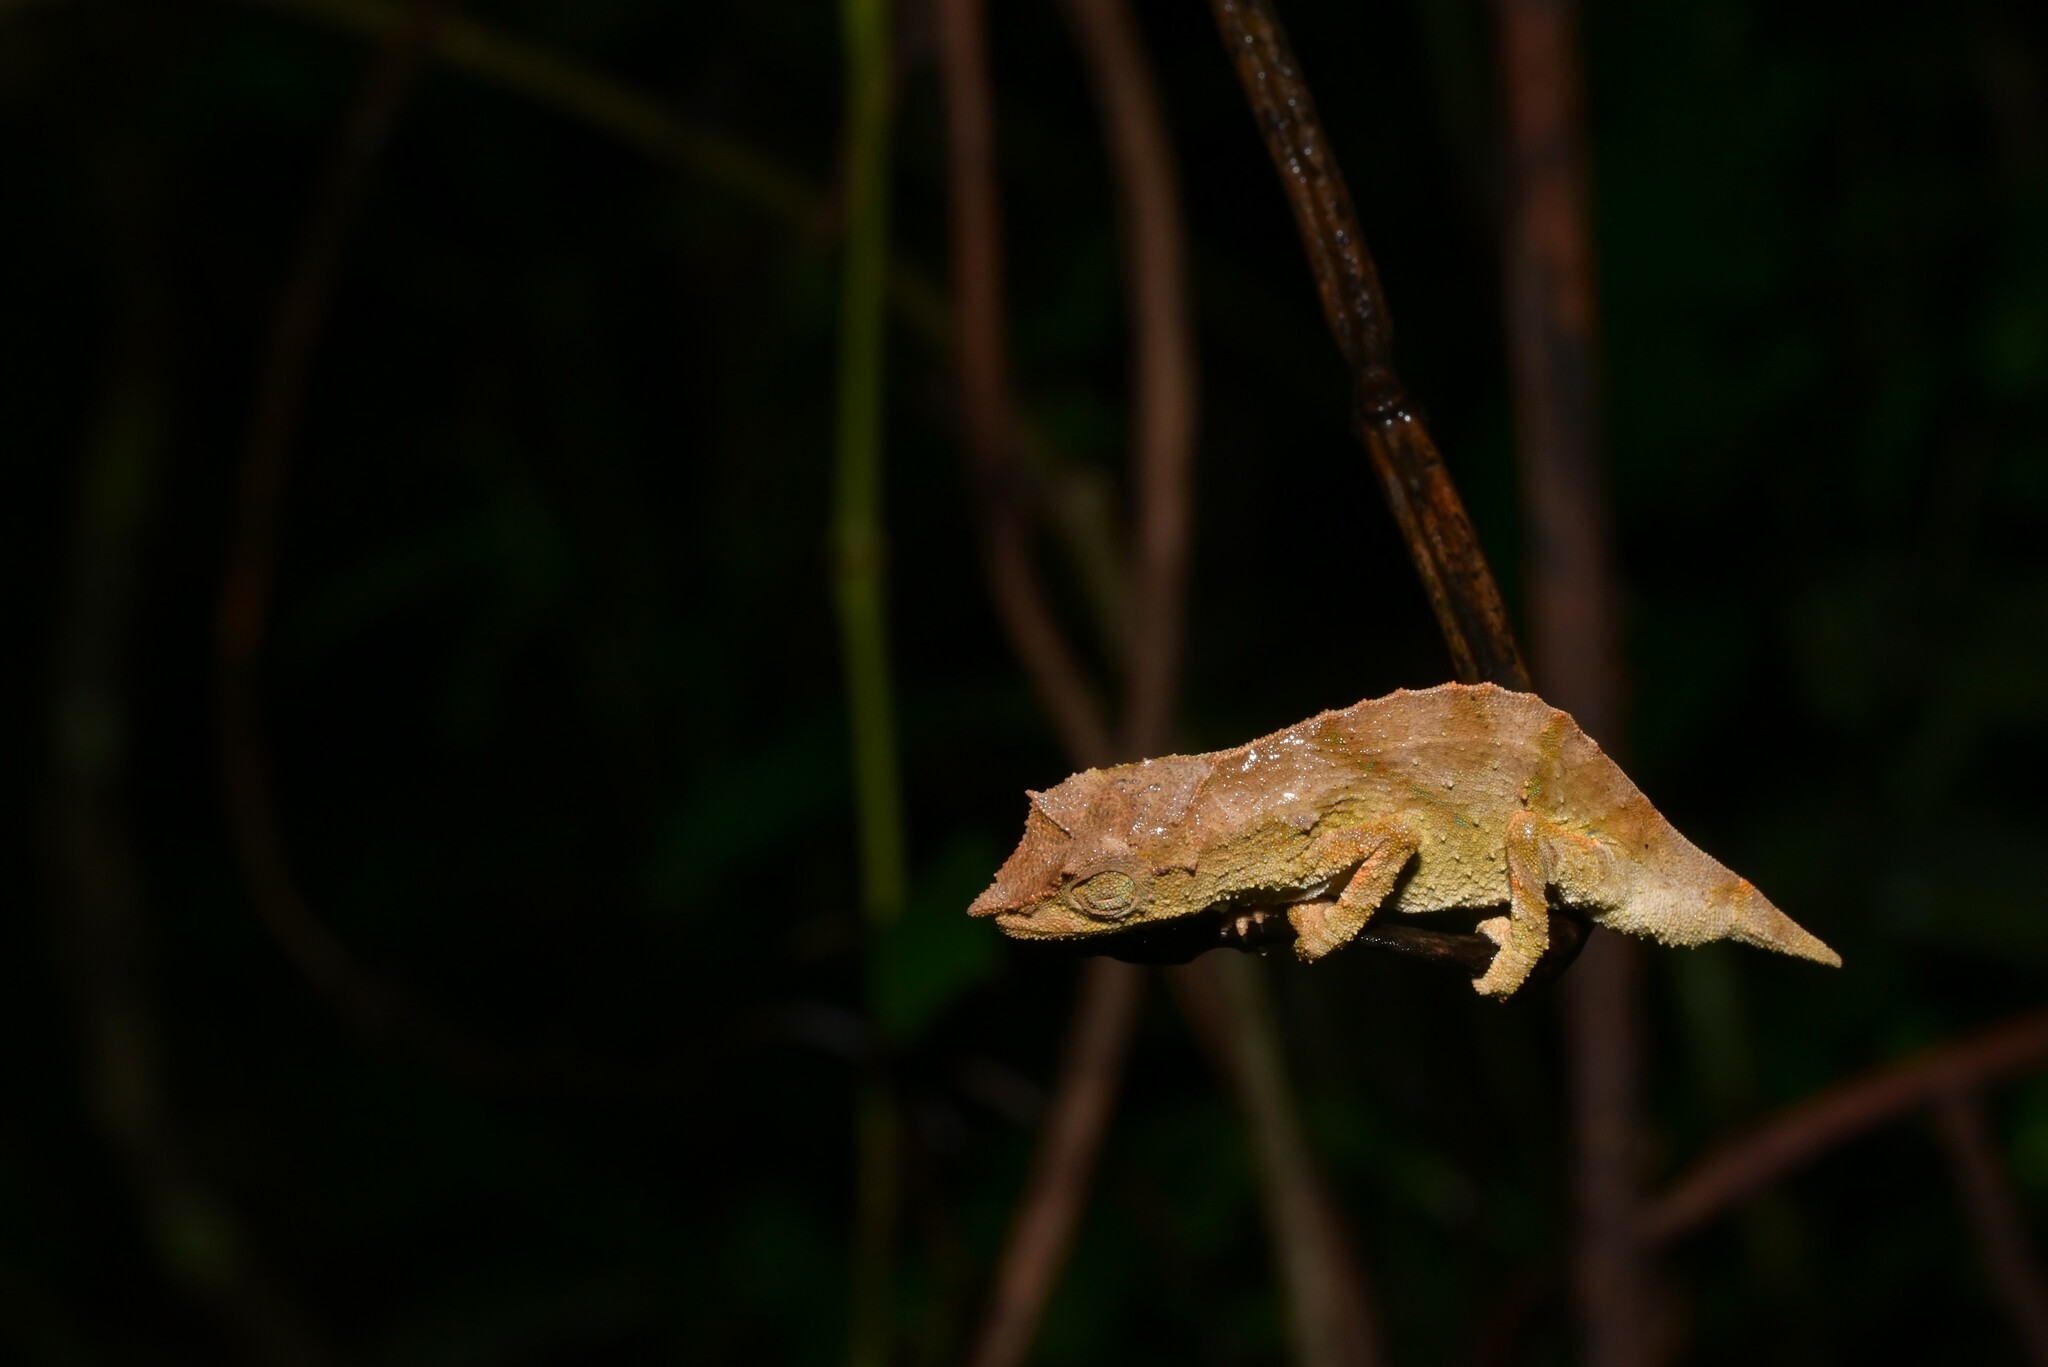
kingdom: Animalia
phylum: Chordata
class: Squamata
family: Chamaeleonidae
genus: Rhampholeon
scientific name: Rhampholeon nchisiensis
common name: South african stumptail chameleon
